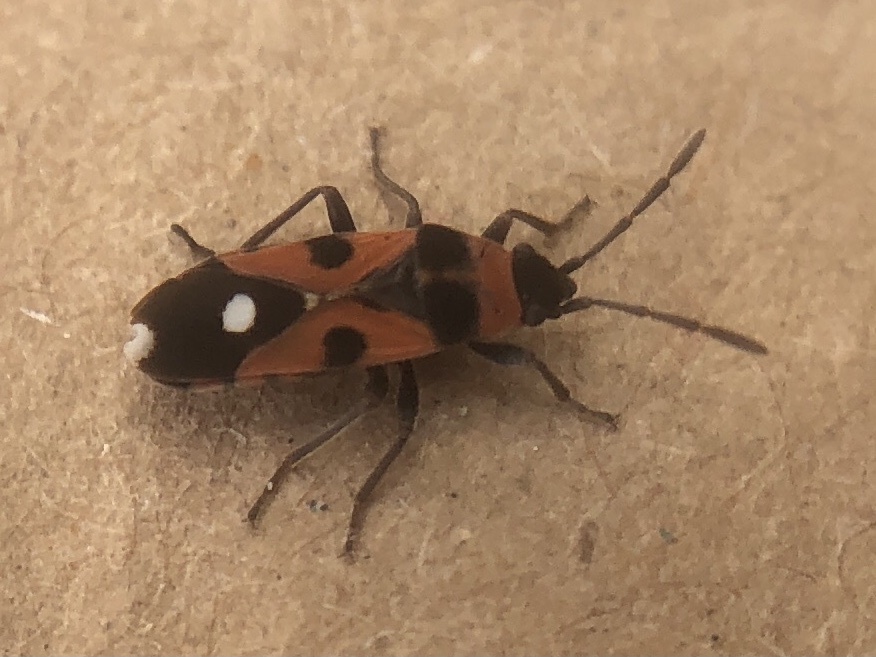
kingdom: Animalia
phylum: Arthropoda
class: Insecta
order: Hemiptera
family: Lygaeidae
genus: Horvathiolus
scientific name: Horvathiolus superbus
